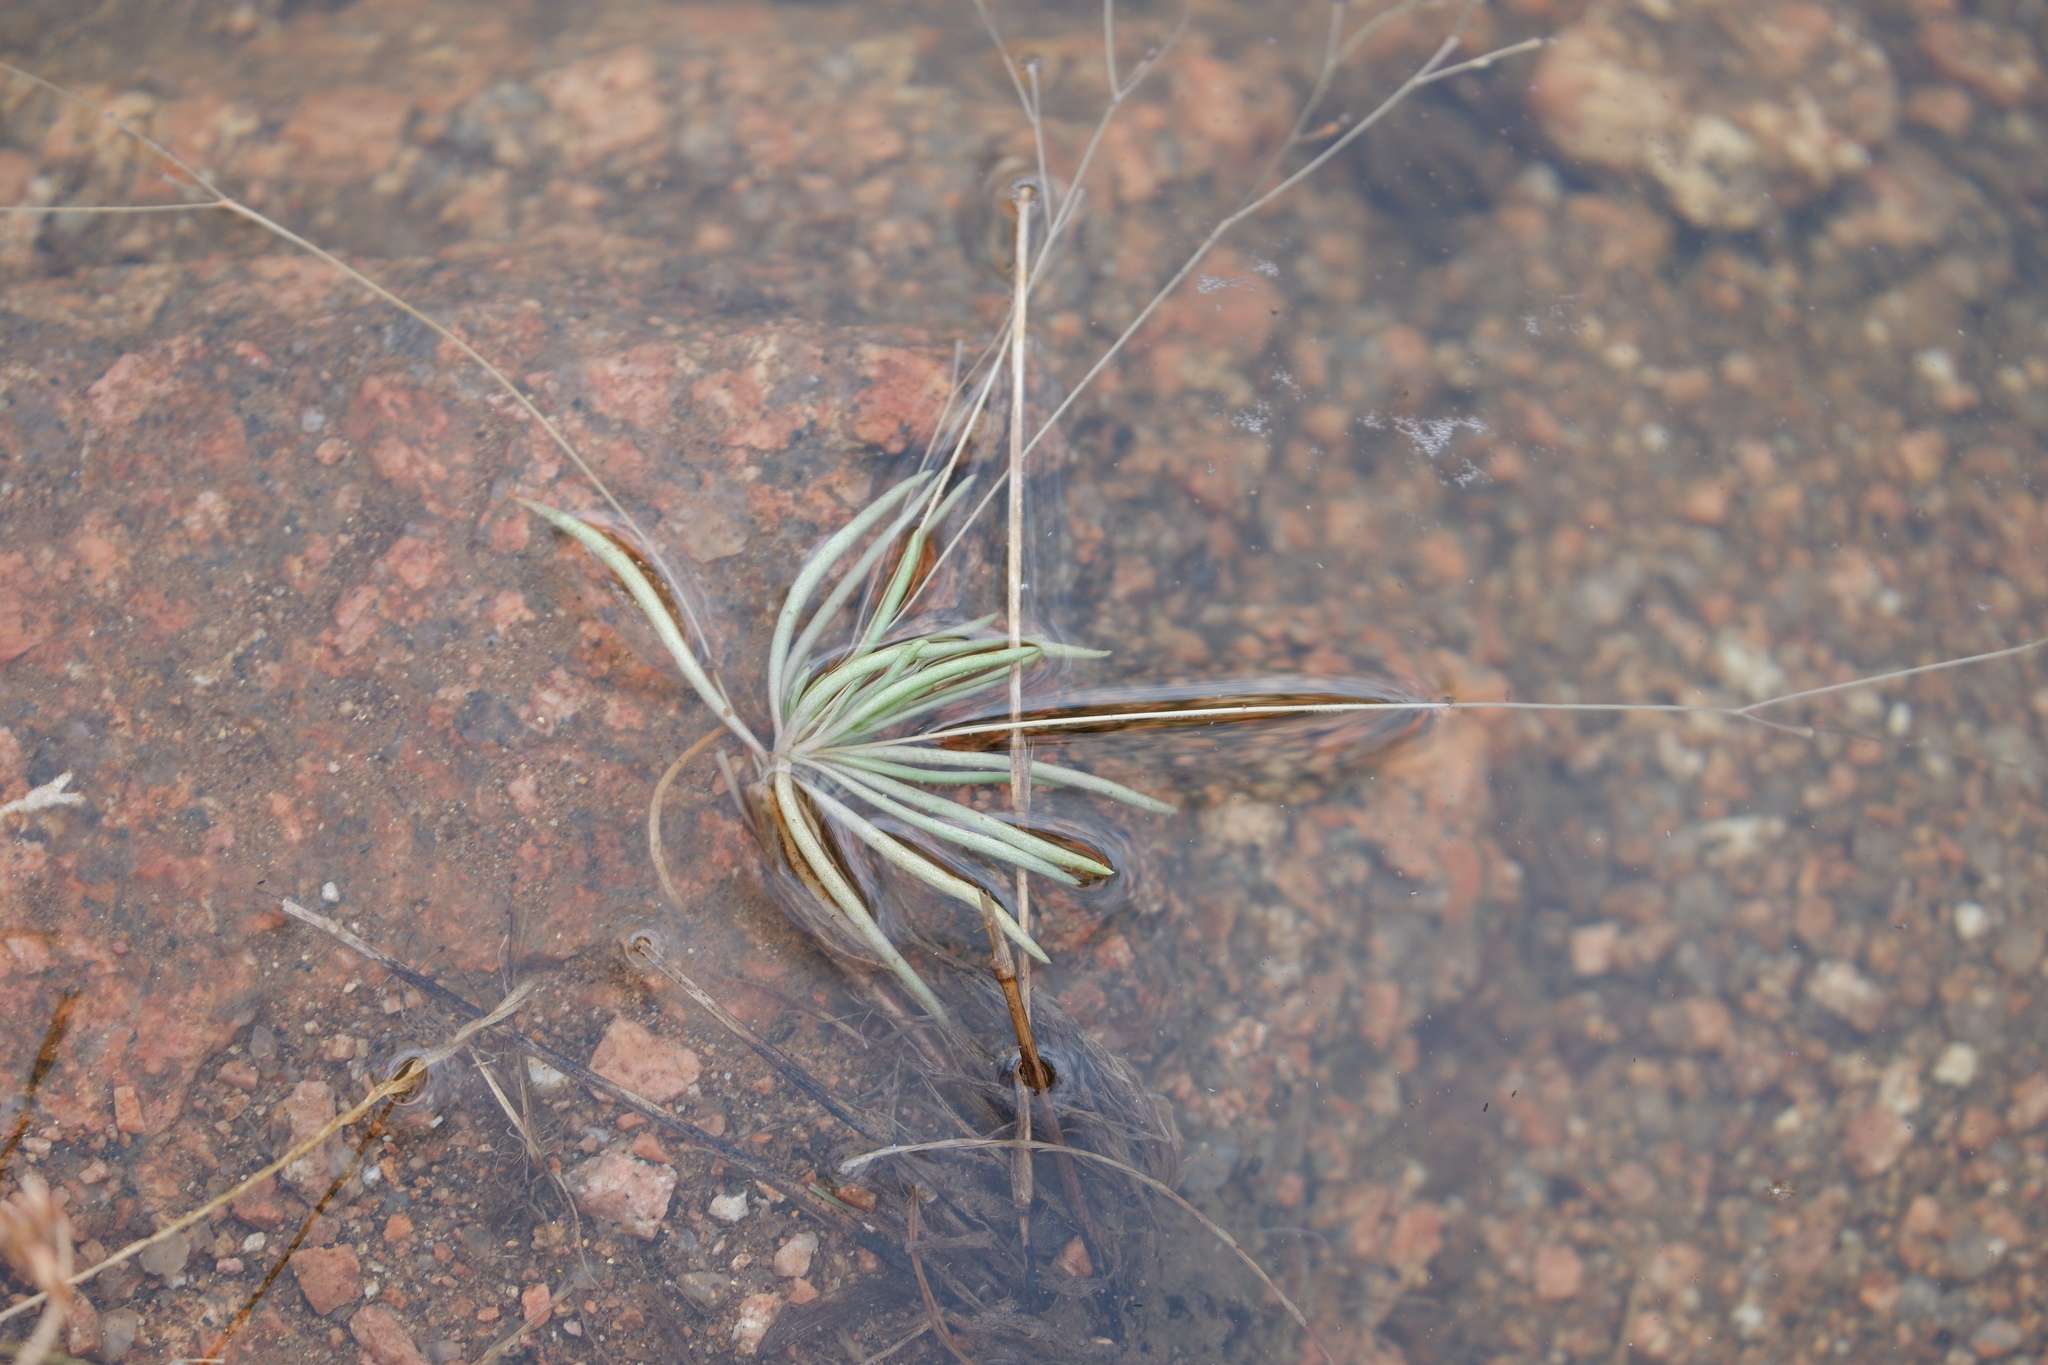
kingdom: Plantae
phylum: Tracheophyta
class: Magnoliopsida
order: Caryophyllales
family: Montiaceae
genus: Phemeranthus
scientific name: Phemeranthus parviflorus
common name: Sunbright
